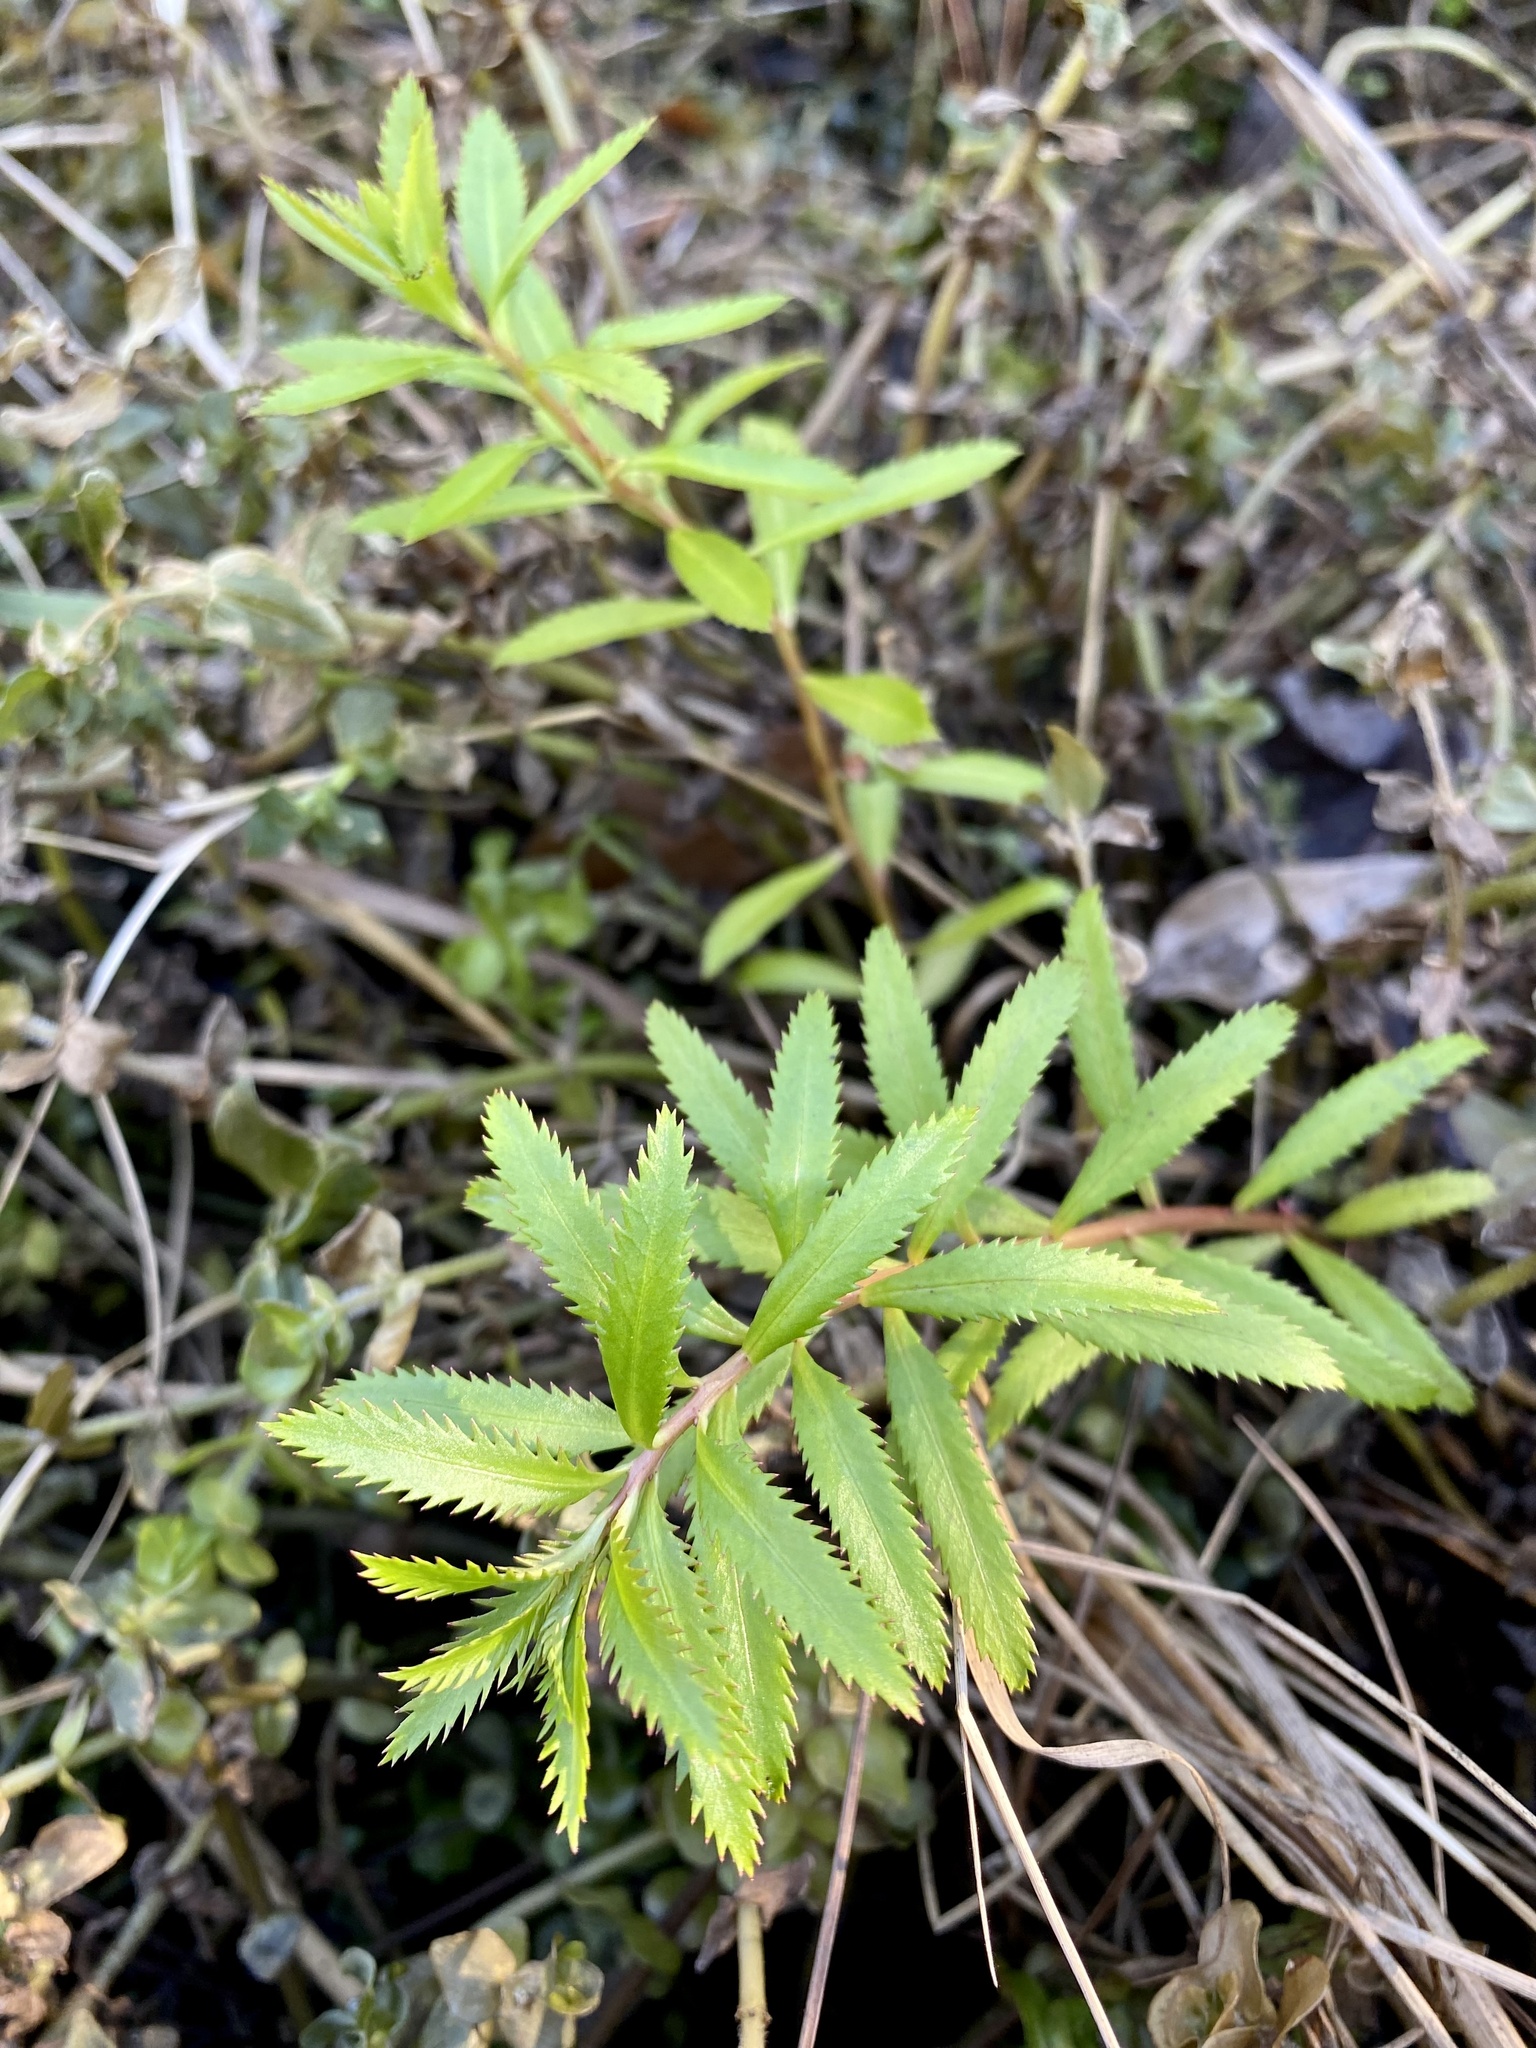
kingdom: Plantae
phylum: Tracheophyta
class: Magnoliopsida
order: Saxifragales
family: Haloragaceae
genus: Proserpinaca
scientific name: Proserpinaca palustris
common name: Marsh mermaidweed
